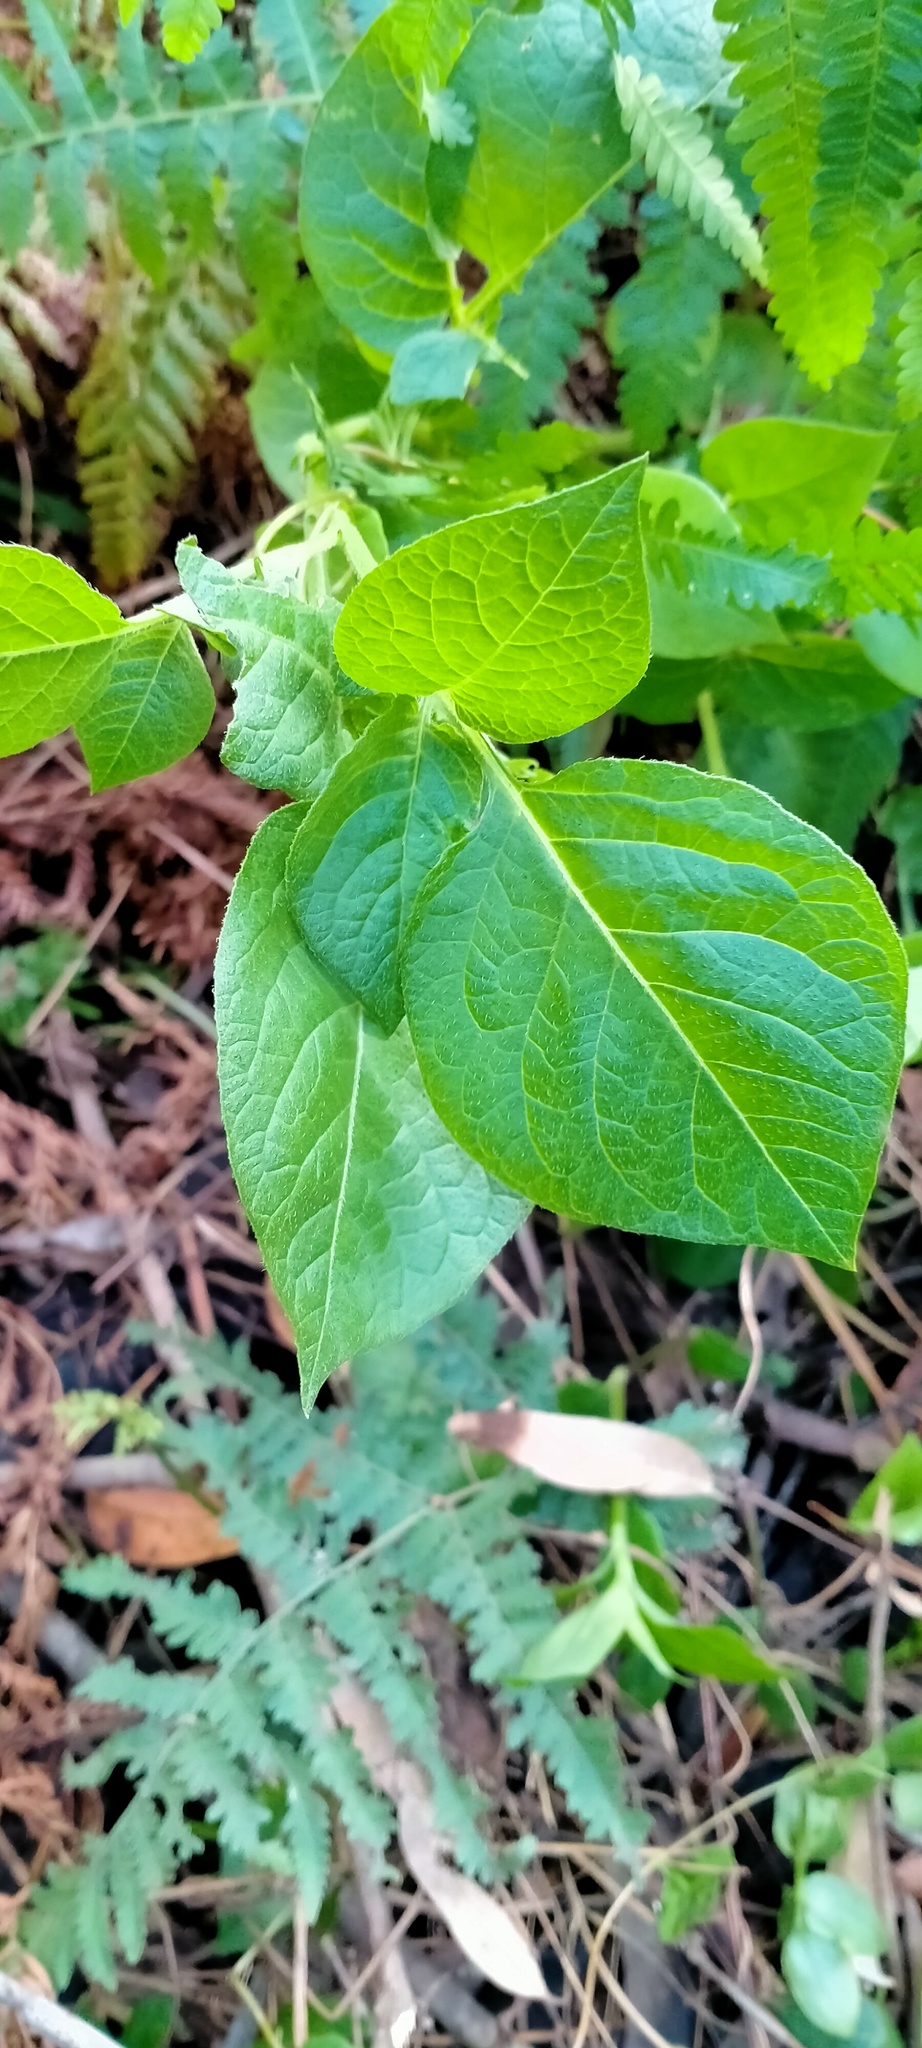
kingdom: Plantae
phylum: Tracheophyta
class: Magnoliopsida
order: Solanales
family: Solanaceae
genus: Solanum
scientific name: Solanum tuberosum
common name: Potato
